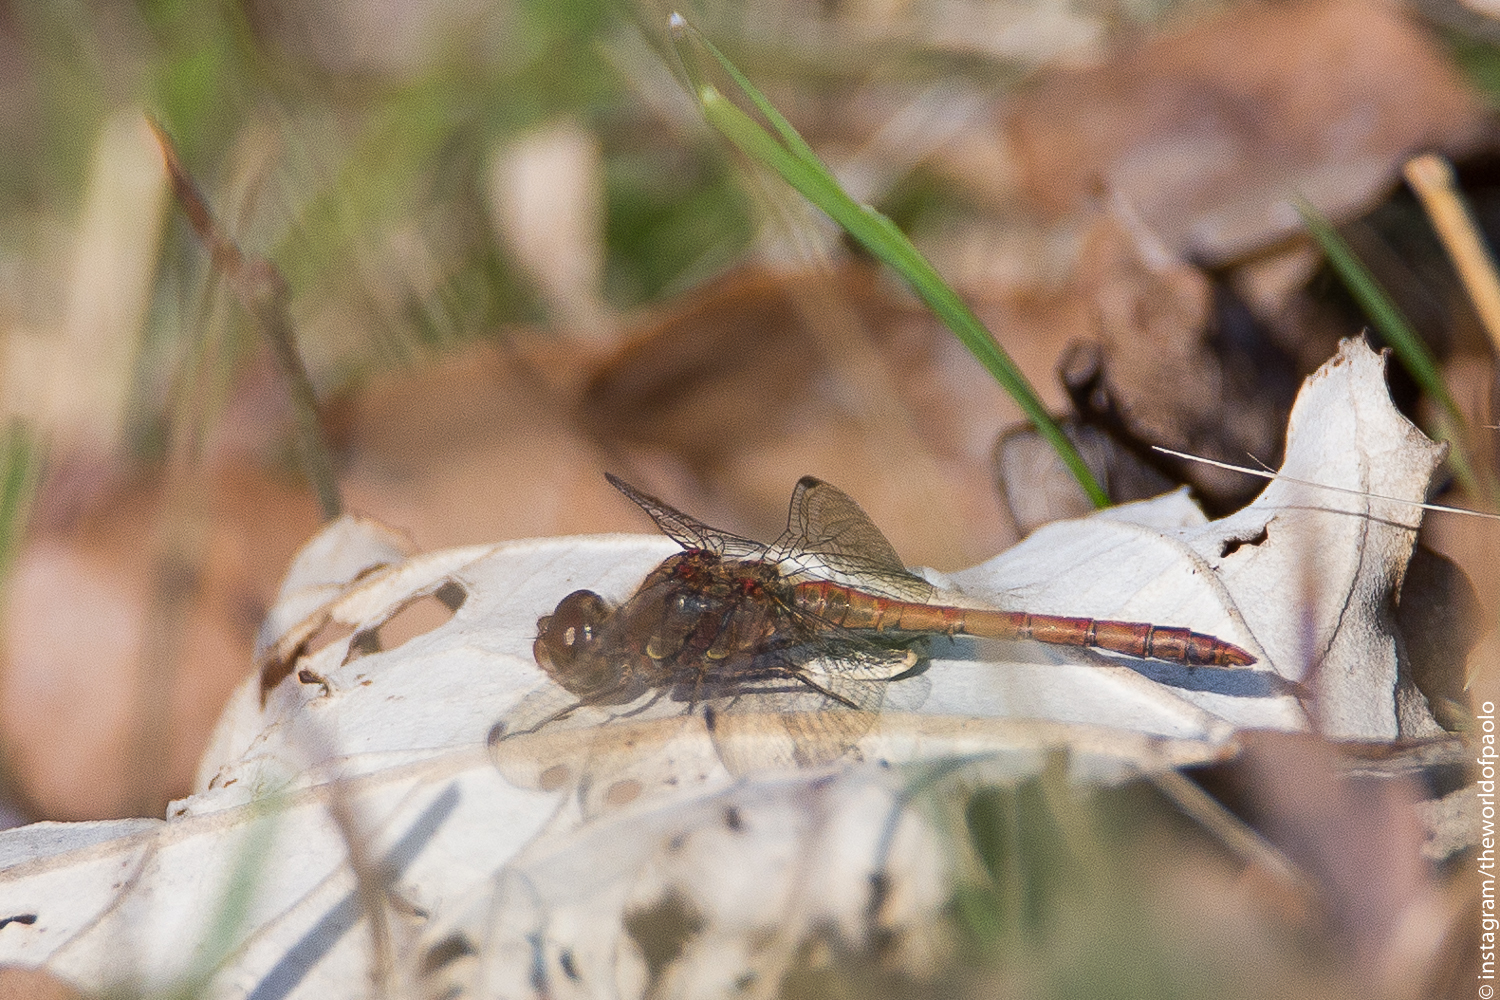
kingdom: Animalia
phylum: Arthropoda
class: Insecta
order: Odonata
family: Libellulidae
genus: Sympetrum
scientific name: Sympetrum striolatum
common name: Common darter
